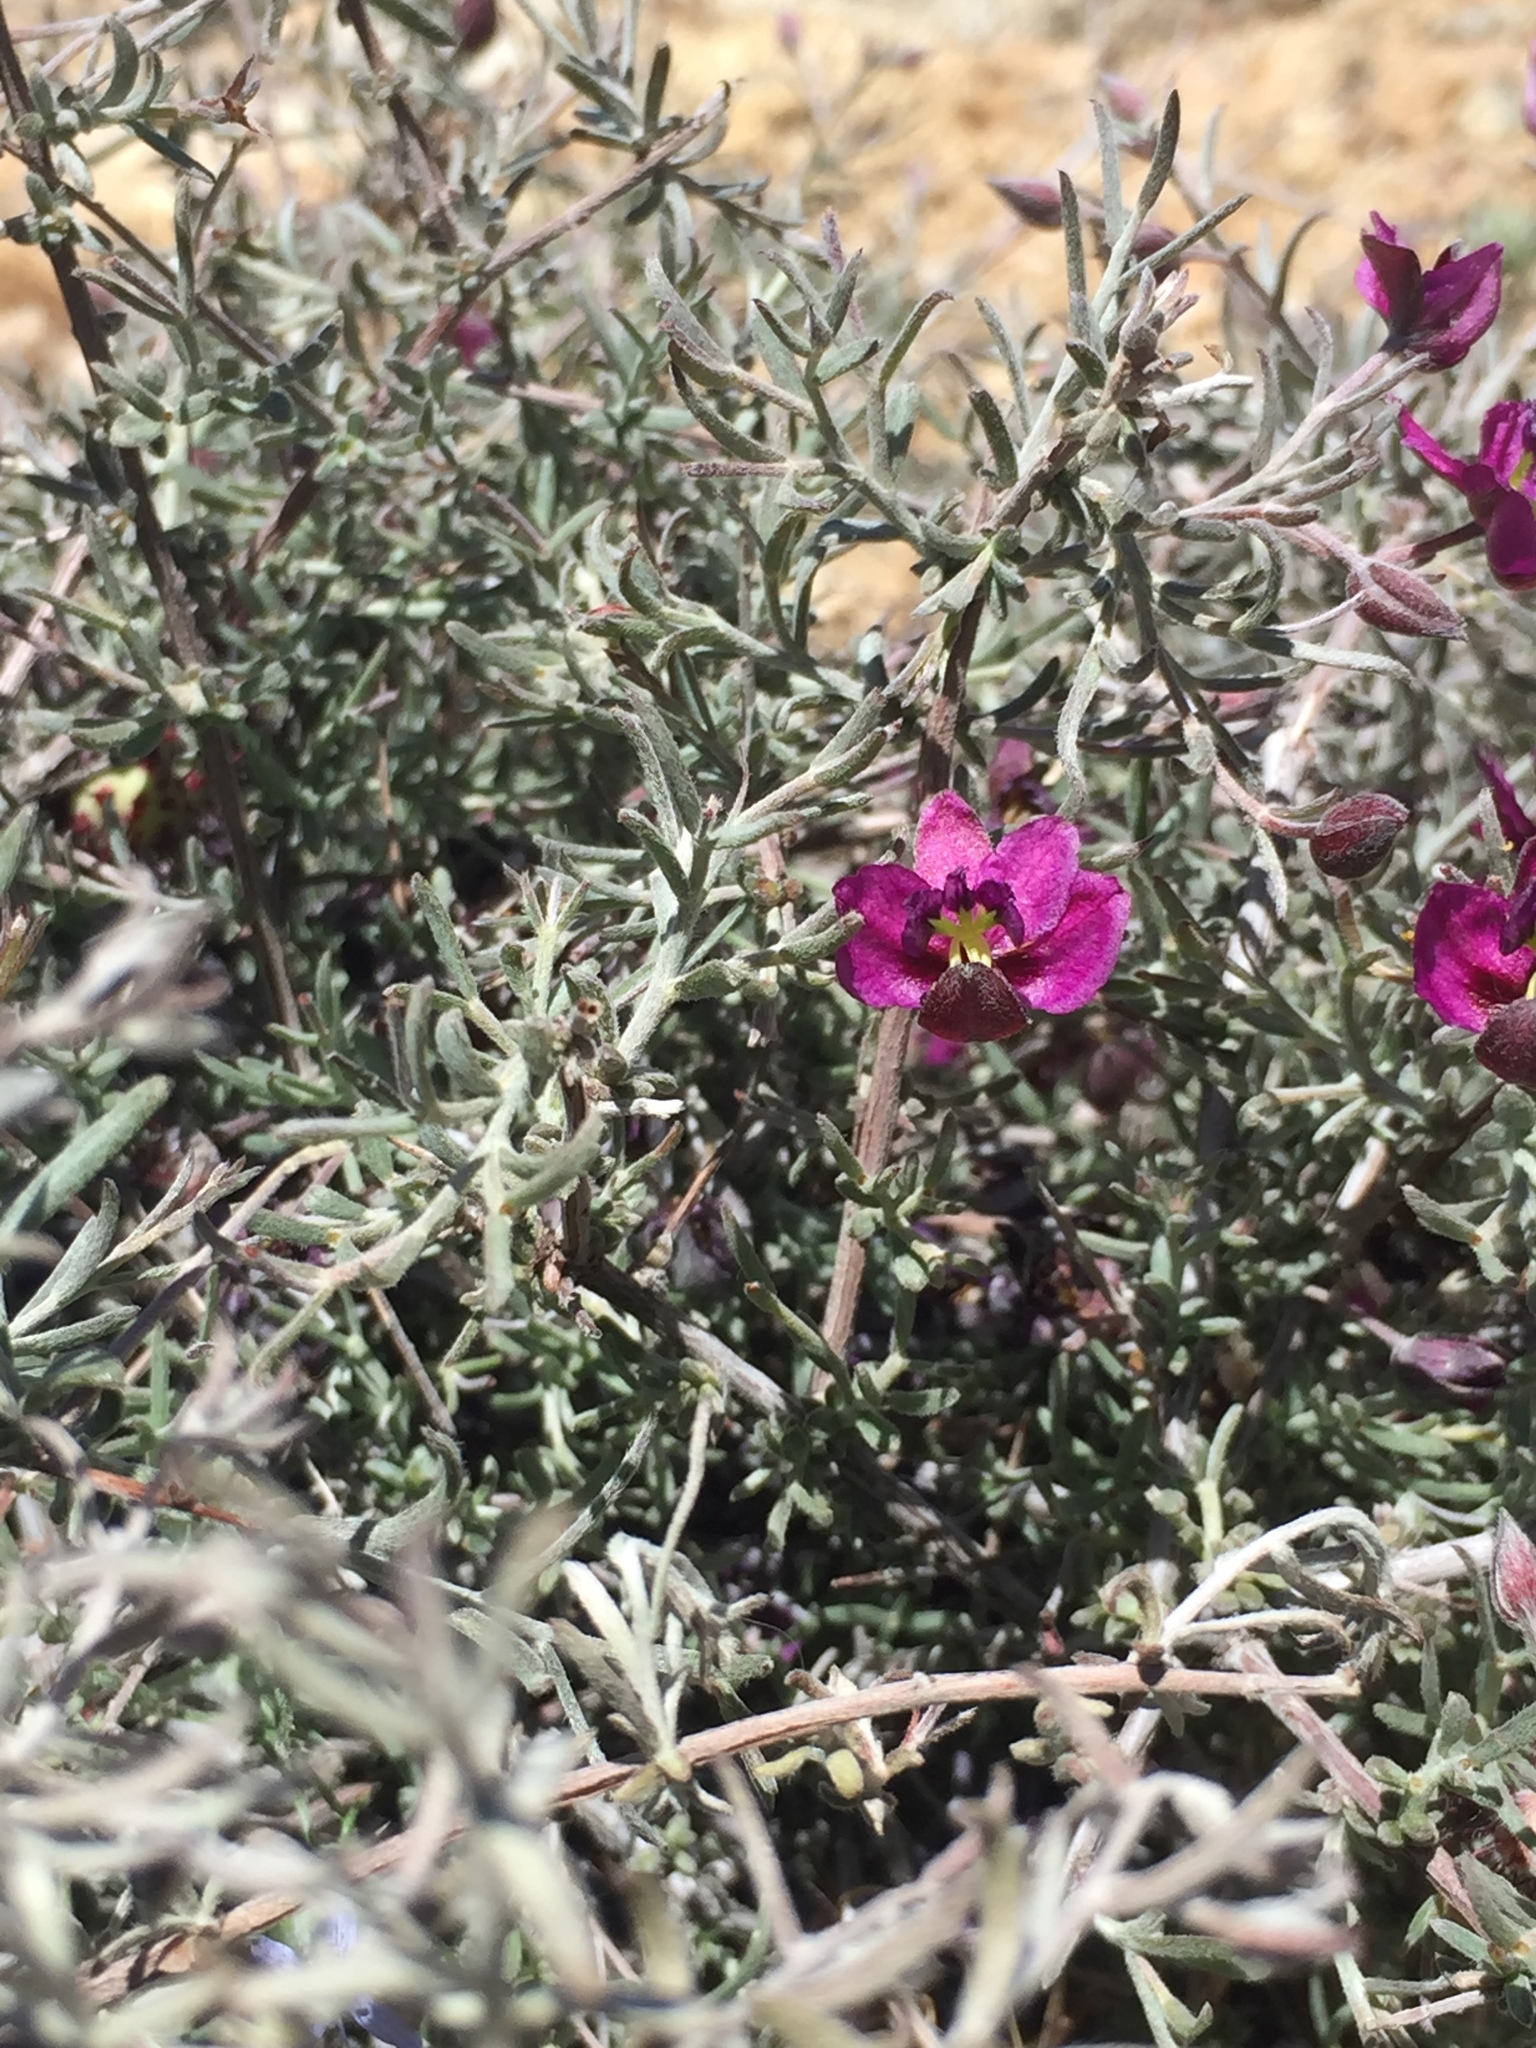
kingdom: Plantae
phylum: Tracheophyta
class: Magnoliopsida
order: Zygophyllales
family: Krameriaceae
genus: Krameria
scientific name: Krameria erecta
